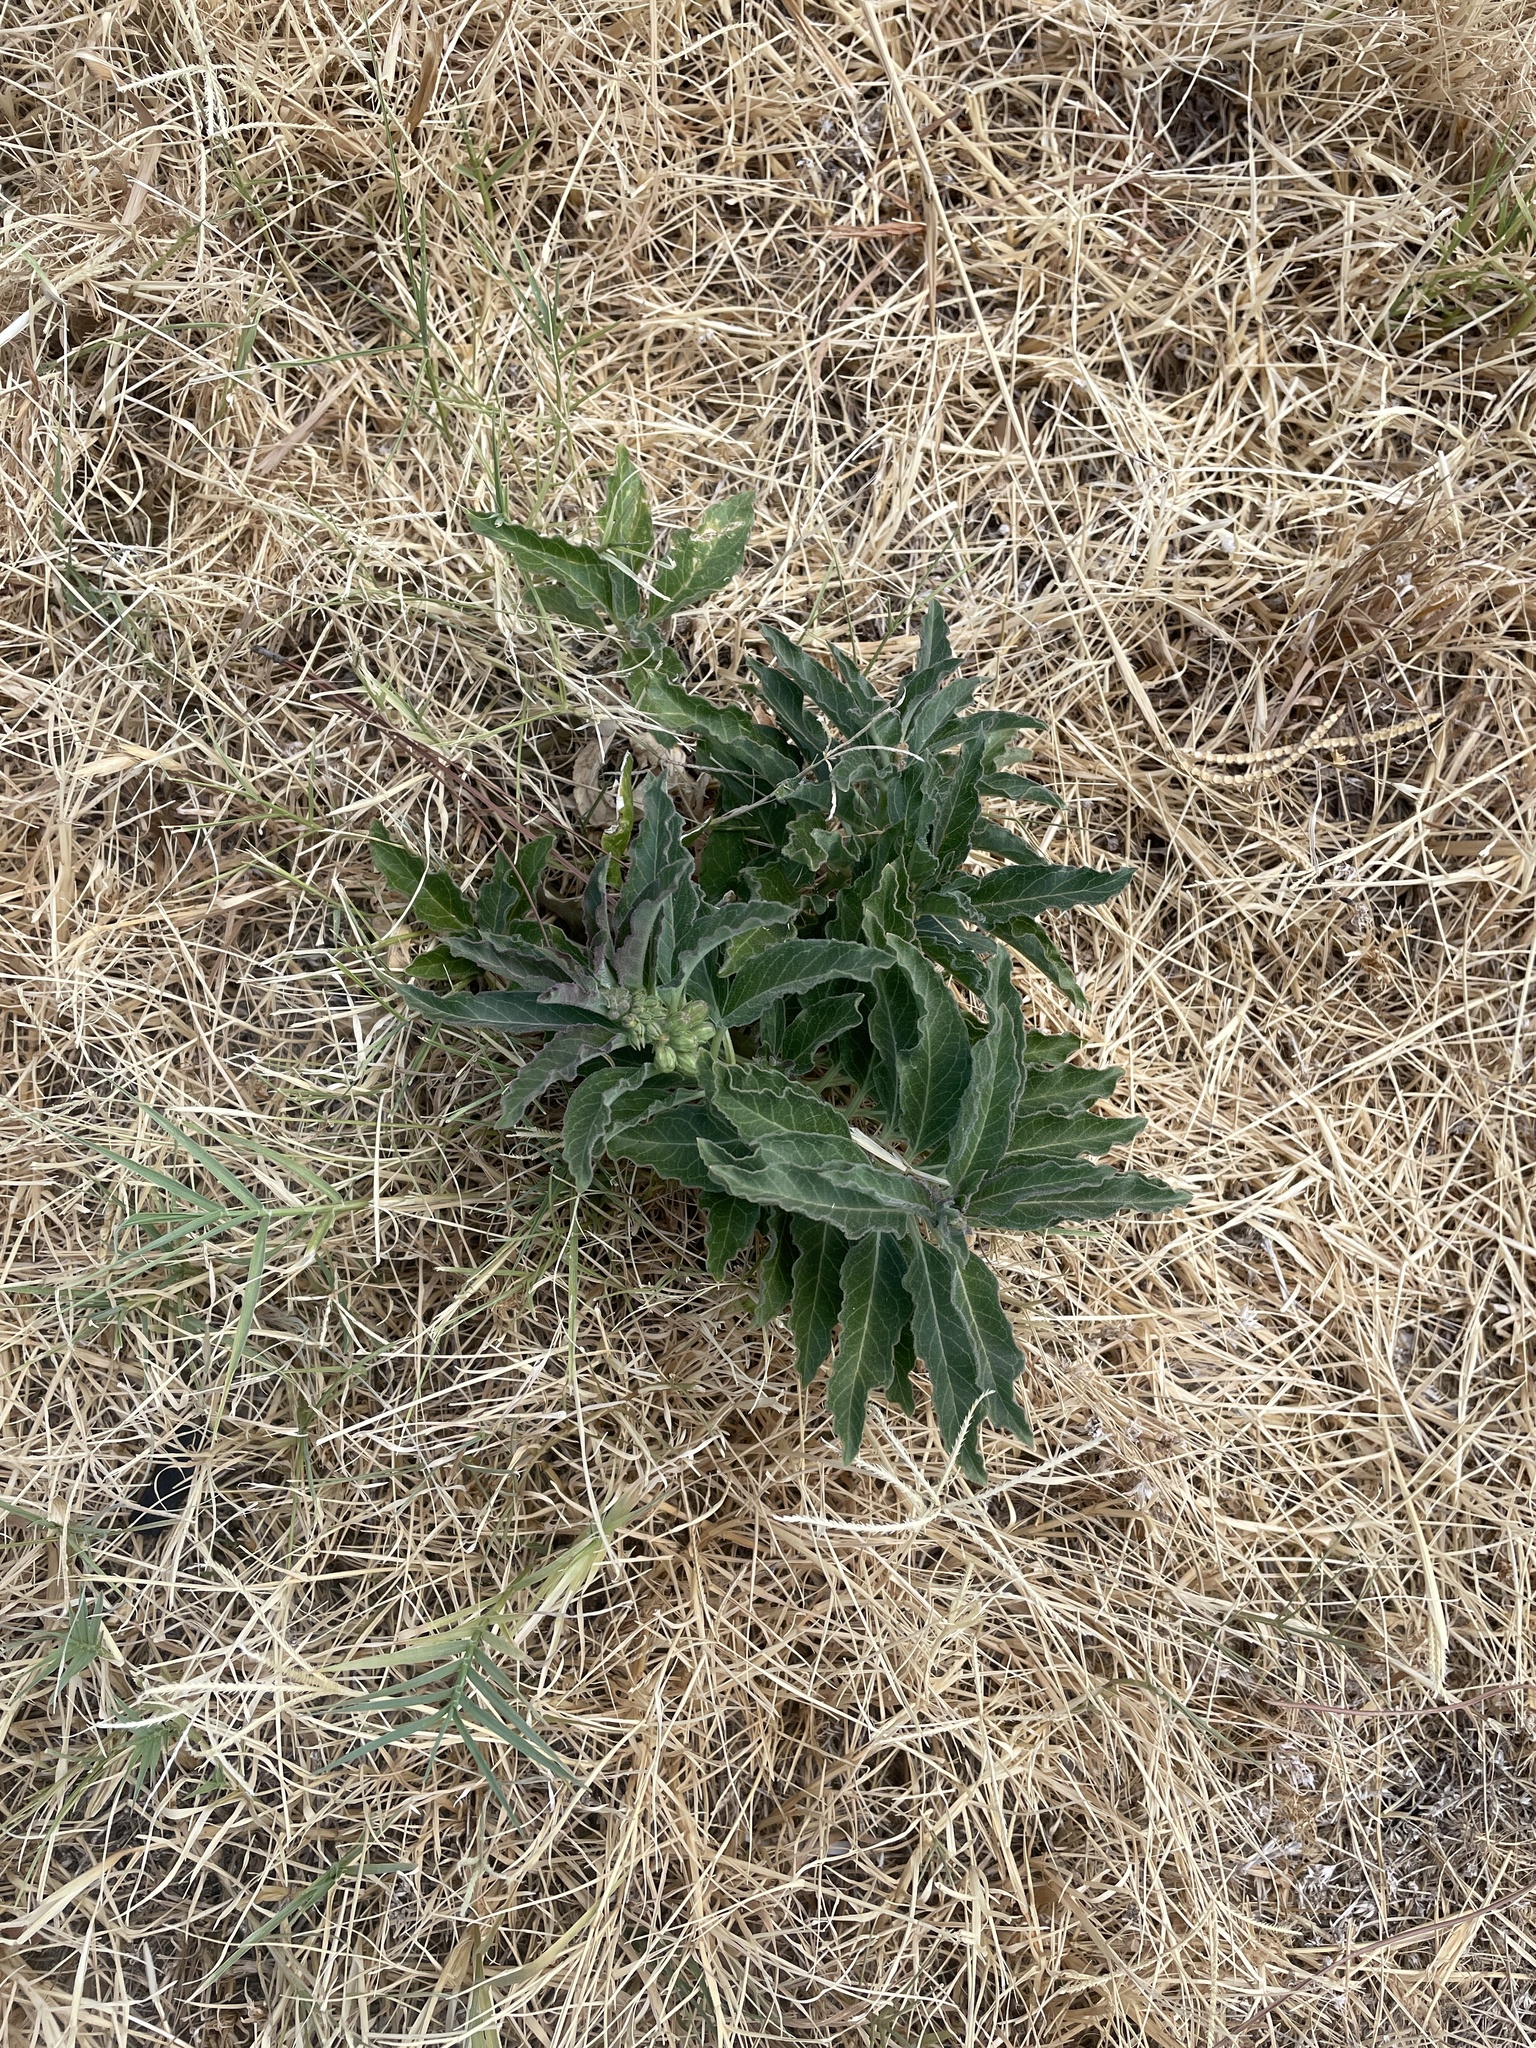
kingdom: Plantae
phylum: Tracheophyta
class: Magnoliopsida
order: Gentianales
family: Apocynaceae
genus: Asclepias
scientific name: Asclepias oenotheroides
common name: Zizotes milkweed
